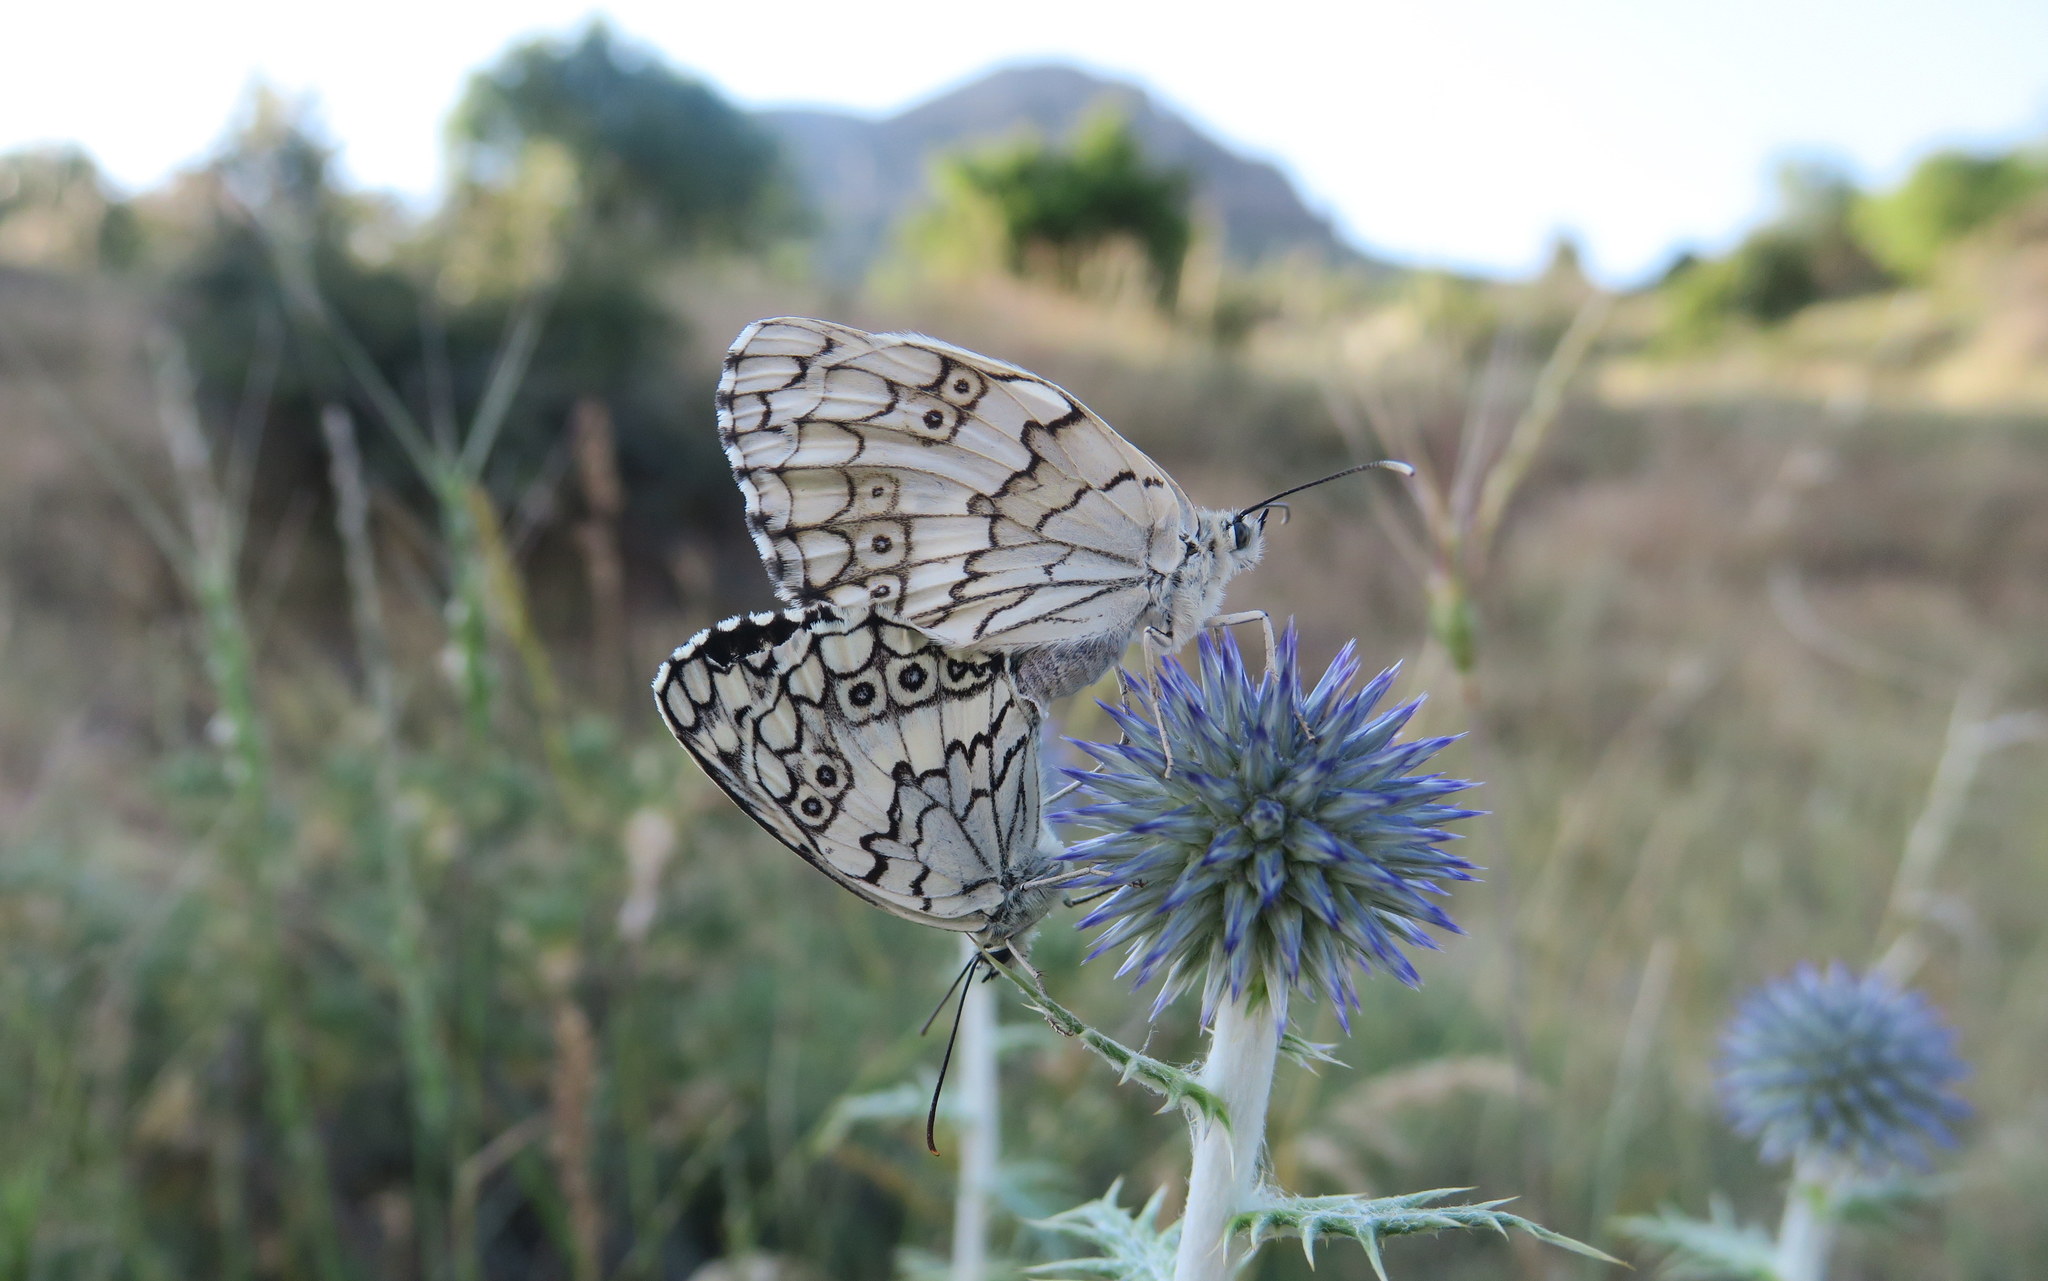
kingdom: Animalia
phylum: Arthropoda
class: Insecta
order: Lepidoptera
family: Nymphalidae
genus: Melanargia
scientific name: Melanargia larissa
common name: Balkan marbled white
